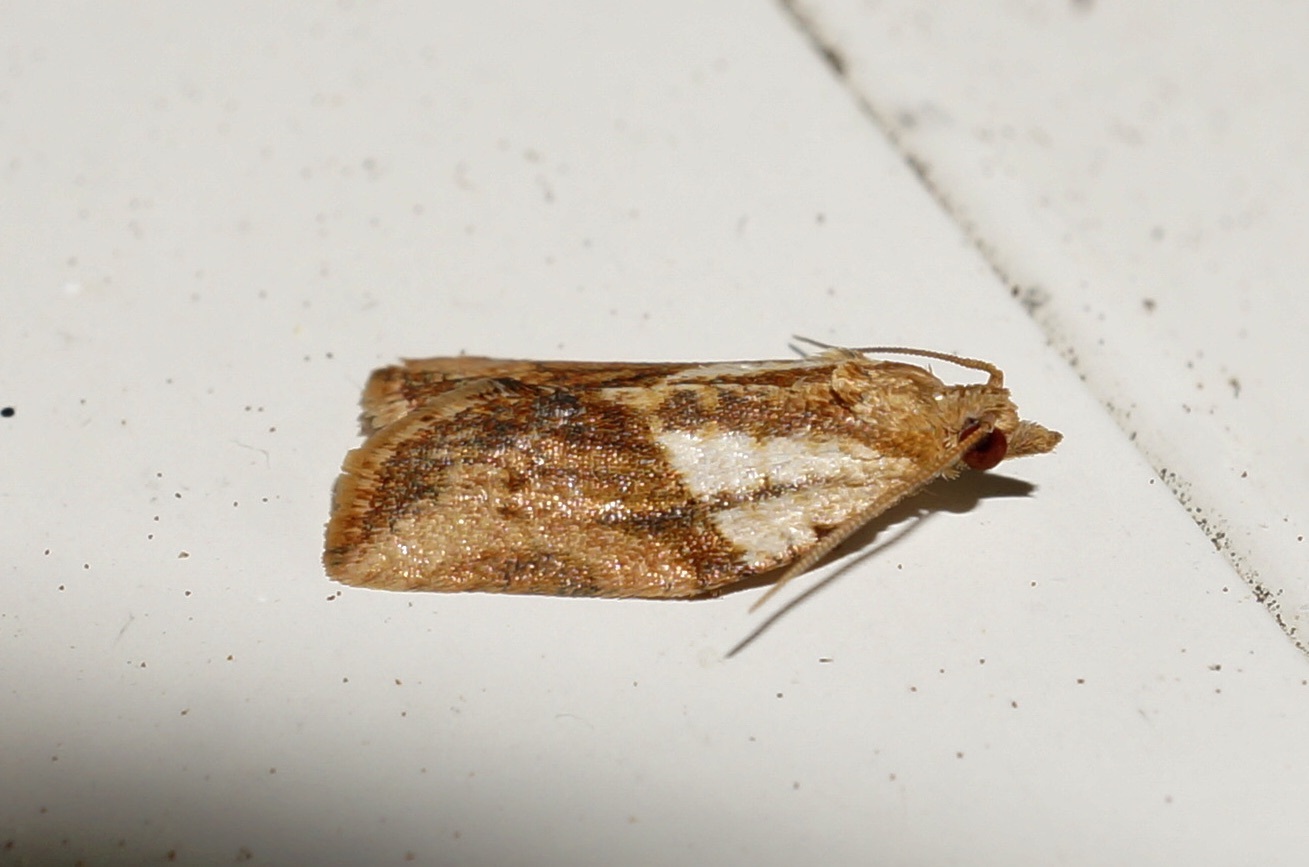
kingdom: Animalia
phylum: Arthropoda
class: Insecta
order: Lepidoptera
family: Tortricidae
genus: Epiphyas
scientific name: Epiphyas postvittana
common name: Light brown apple moth
